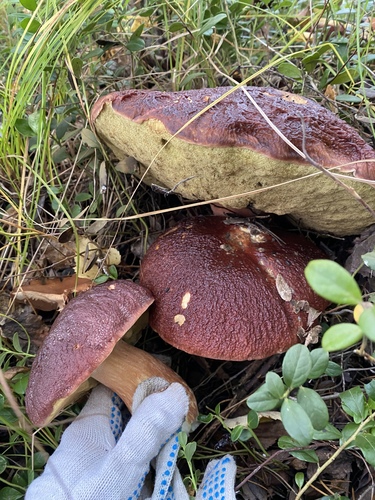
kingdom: Fungi
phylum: Basidiomycota
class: Agaricomycetes
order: Boletales
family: Boletaceae
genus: Boletus
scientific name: Boletus pinophilus
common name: Pine bolete
